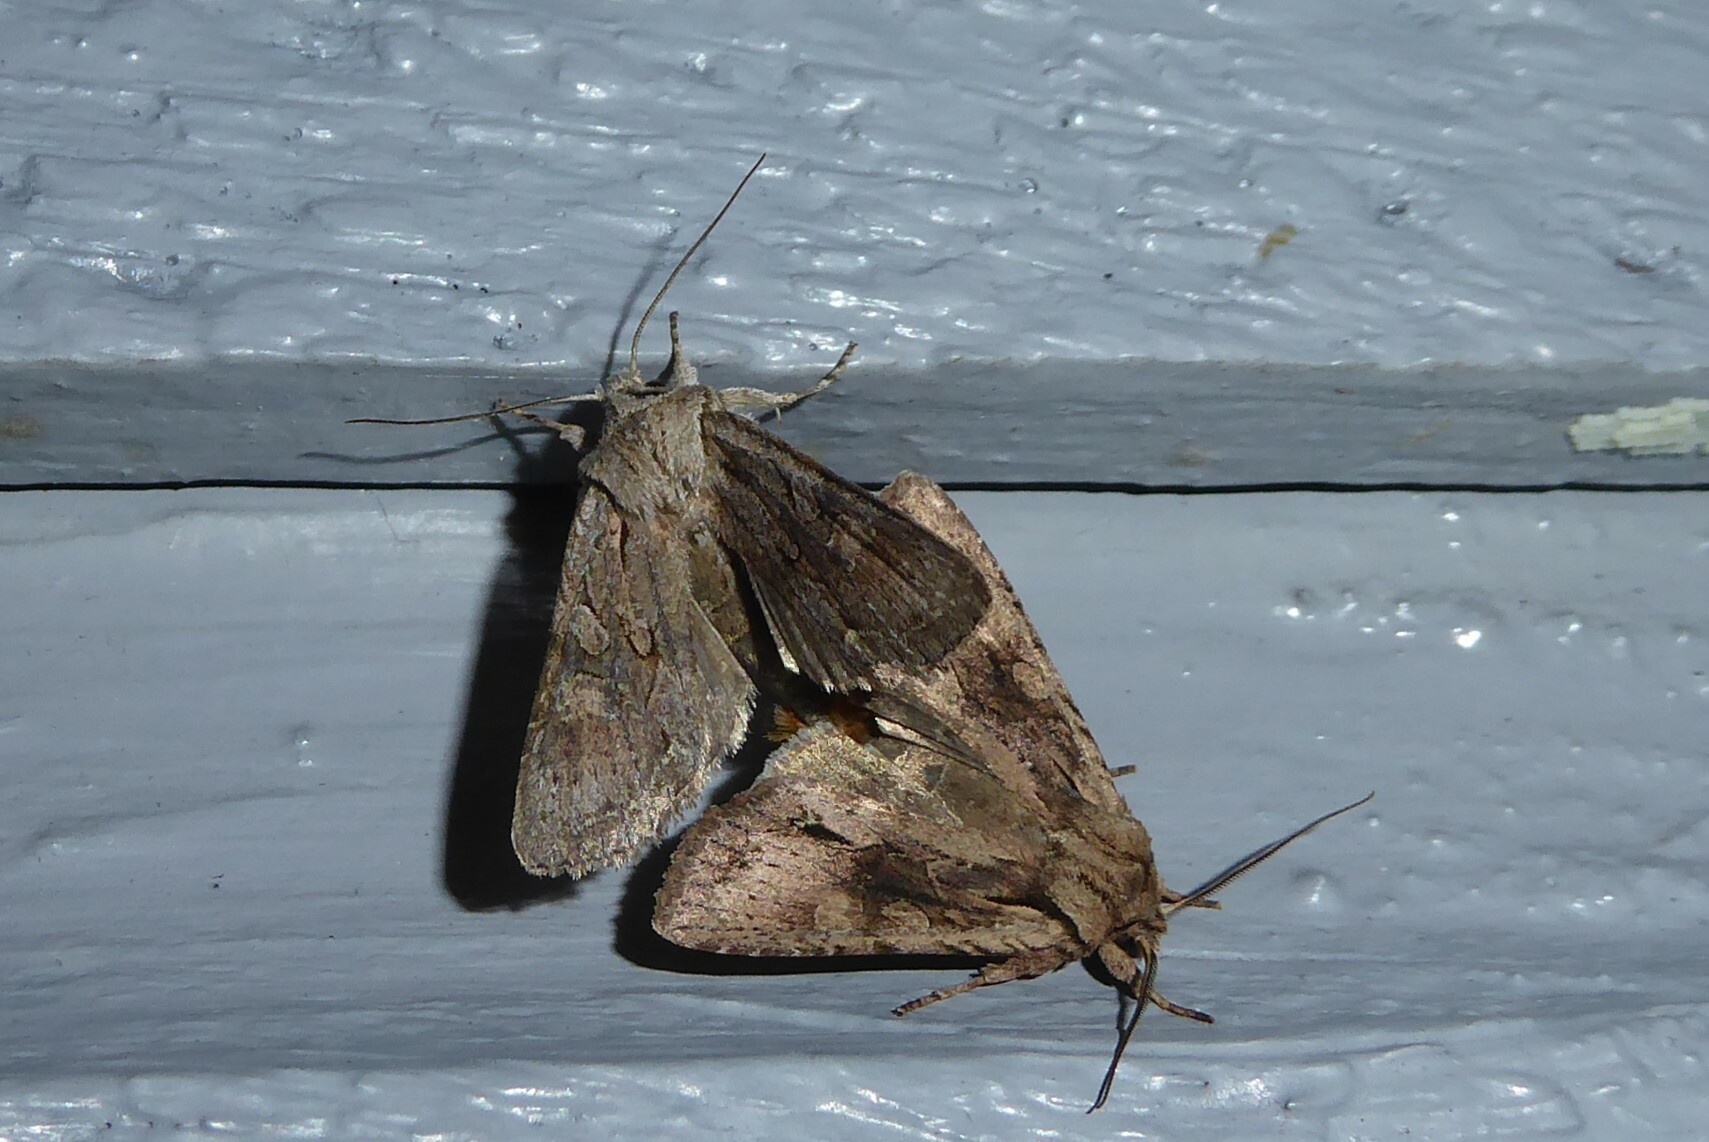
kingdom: Animalia
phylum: Arthropoda
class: Insecta
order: Lepidoptera
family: Noctuidae
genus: Ichneutica
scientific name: Ichneutica mutans
